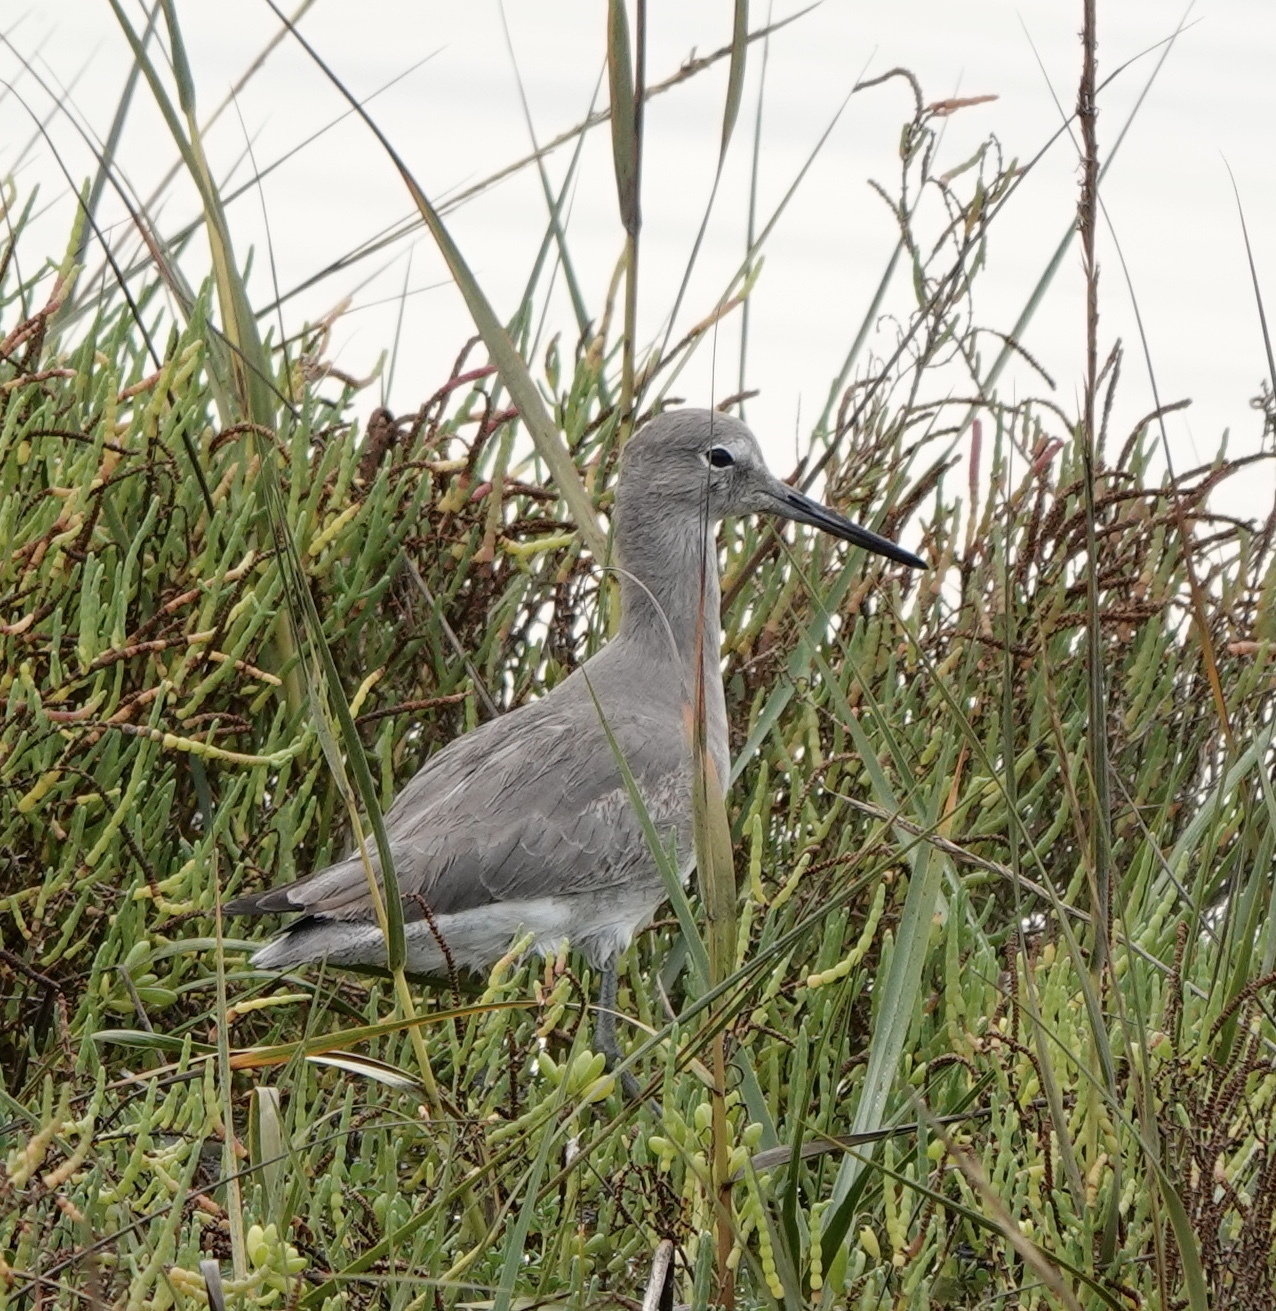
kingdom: Animalia
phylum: Chordata
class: Aves
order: Charadriiformes
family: Scolopacidae
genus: Tringa
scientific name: Tringa semipalmata
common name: Willet
